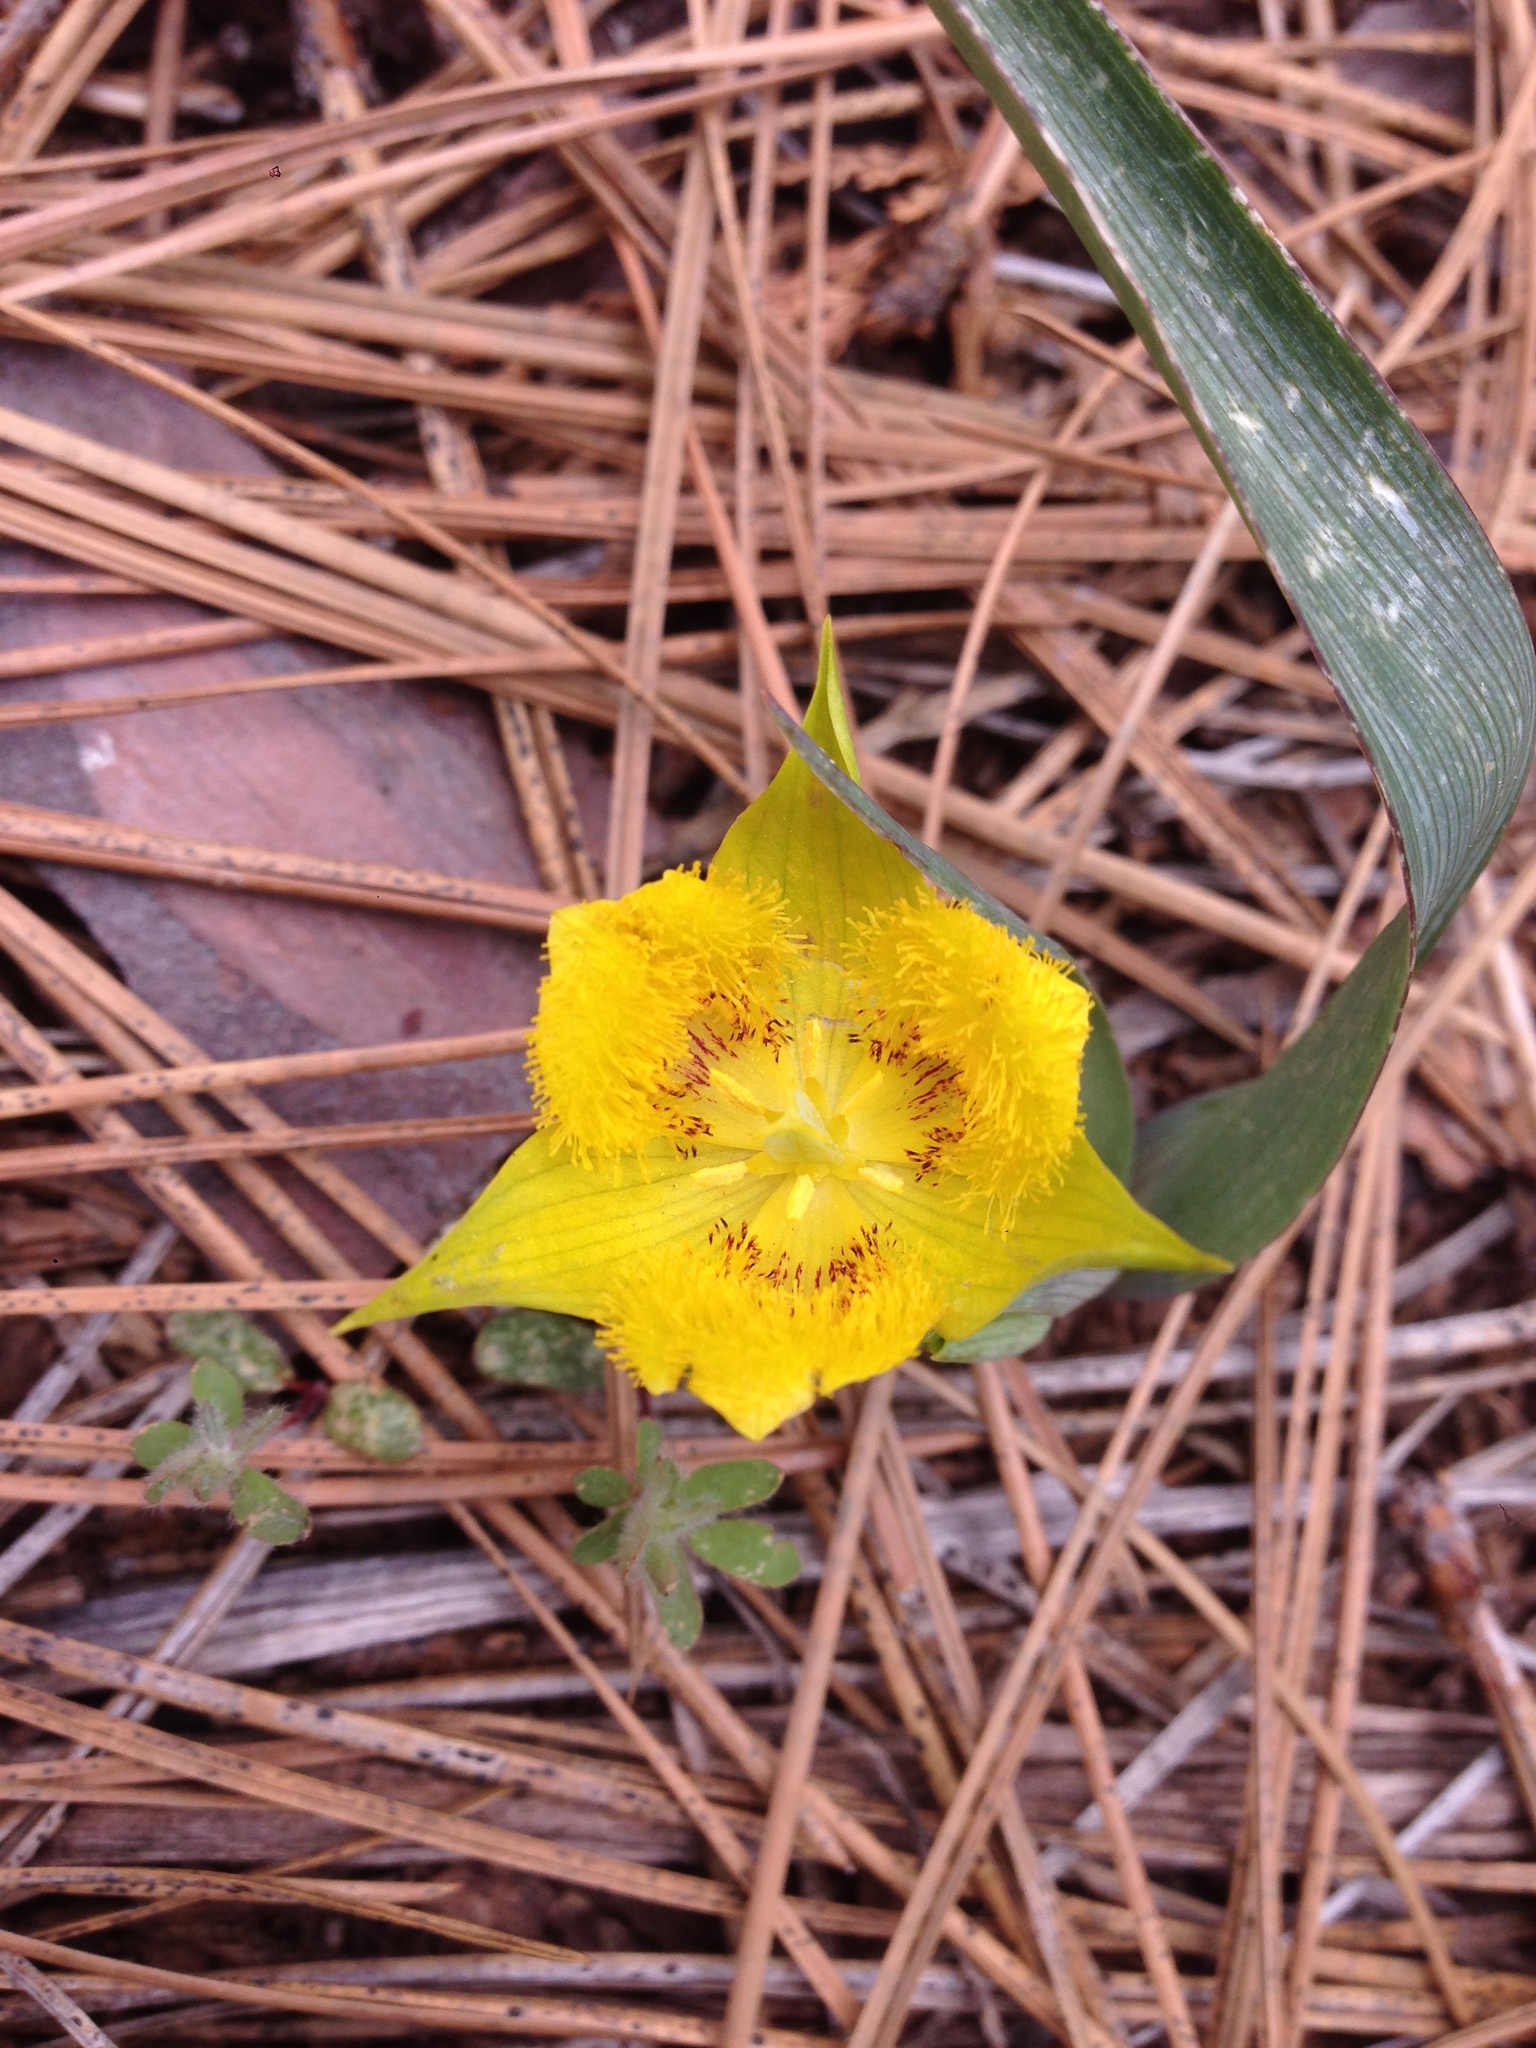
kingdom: Plantae
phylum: Tracheophyta
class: Liliopsida
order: Liliales
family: Liliaceae
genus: Calochortus
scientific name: Calochortus monophyllus
